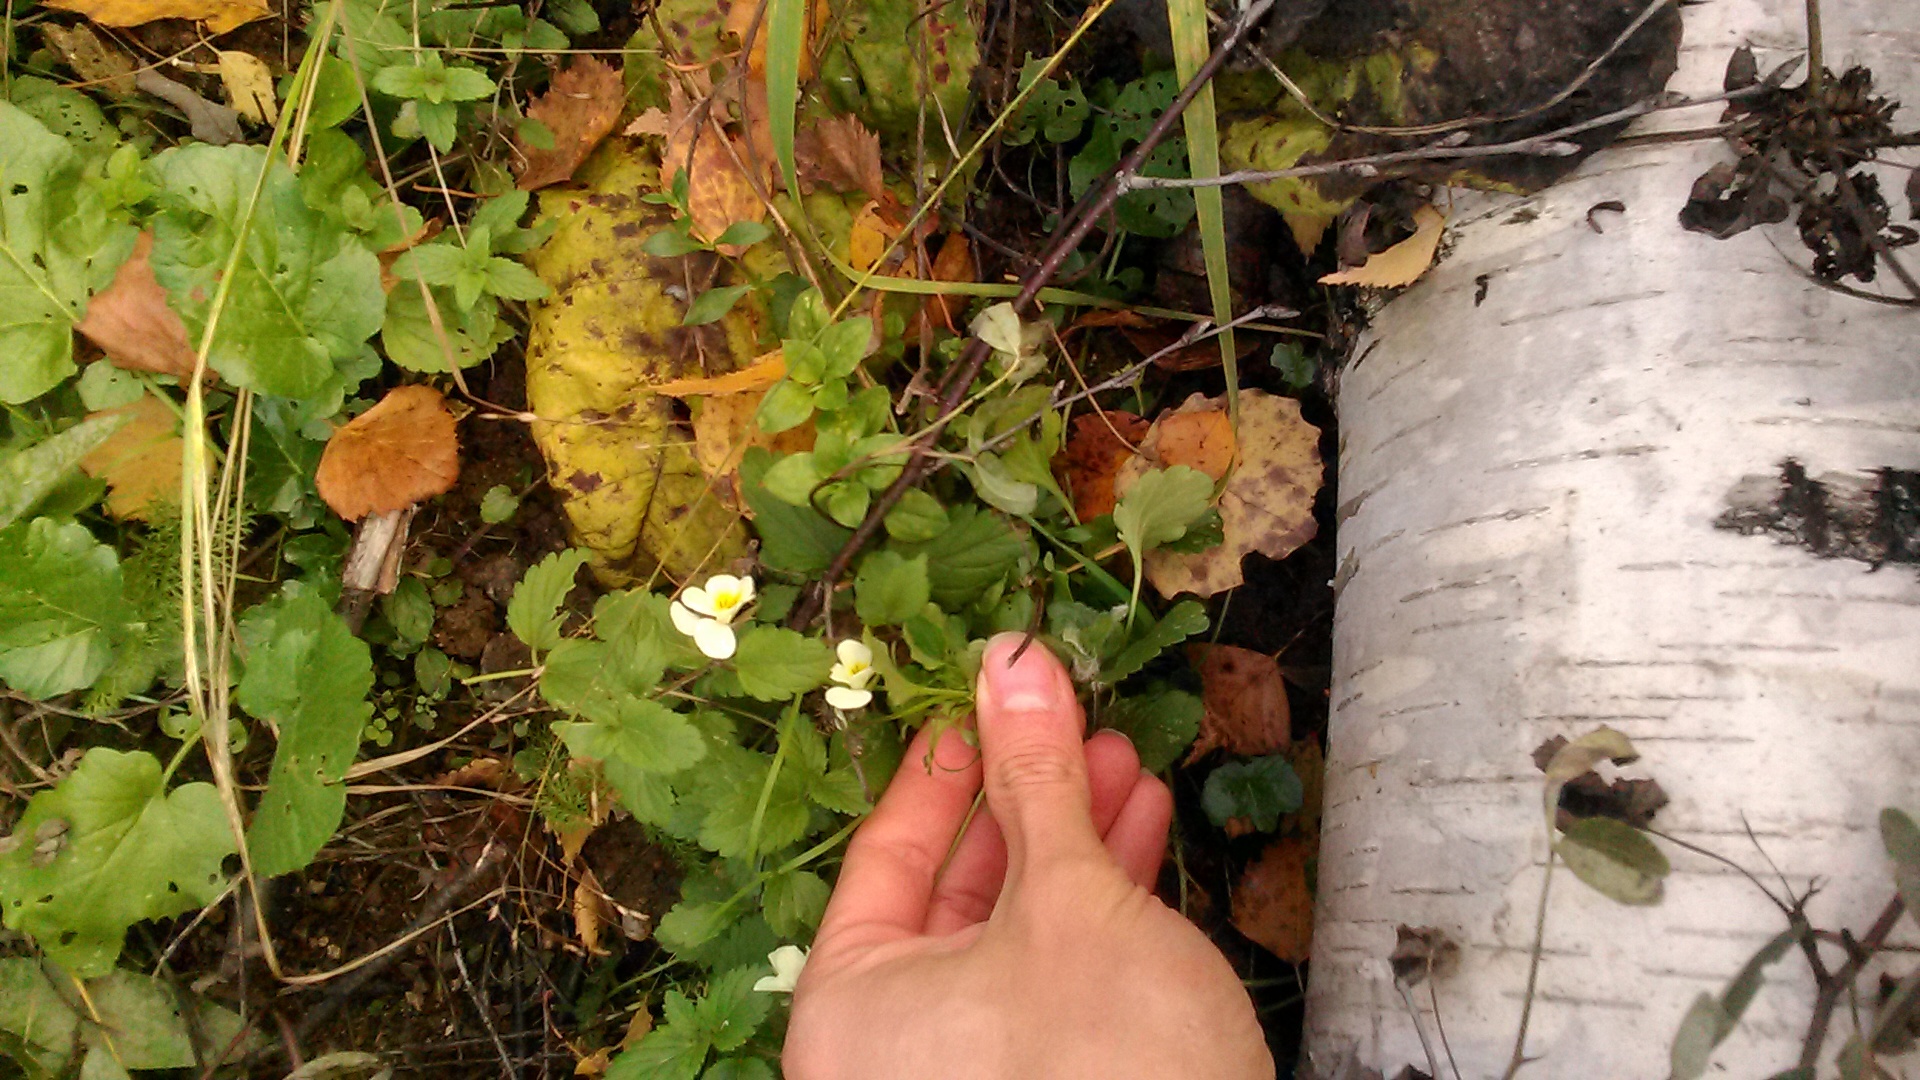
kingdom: Plantae
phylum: Tracheophyta
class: Magnoliopsida
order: Malpighiales
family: Violaceae
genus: Viola
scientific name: Viola arvensis
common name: Field pansy
